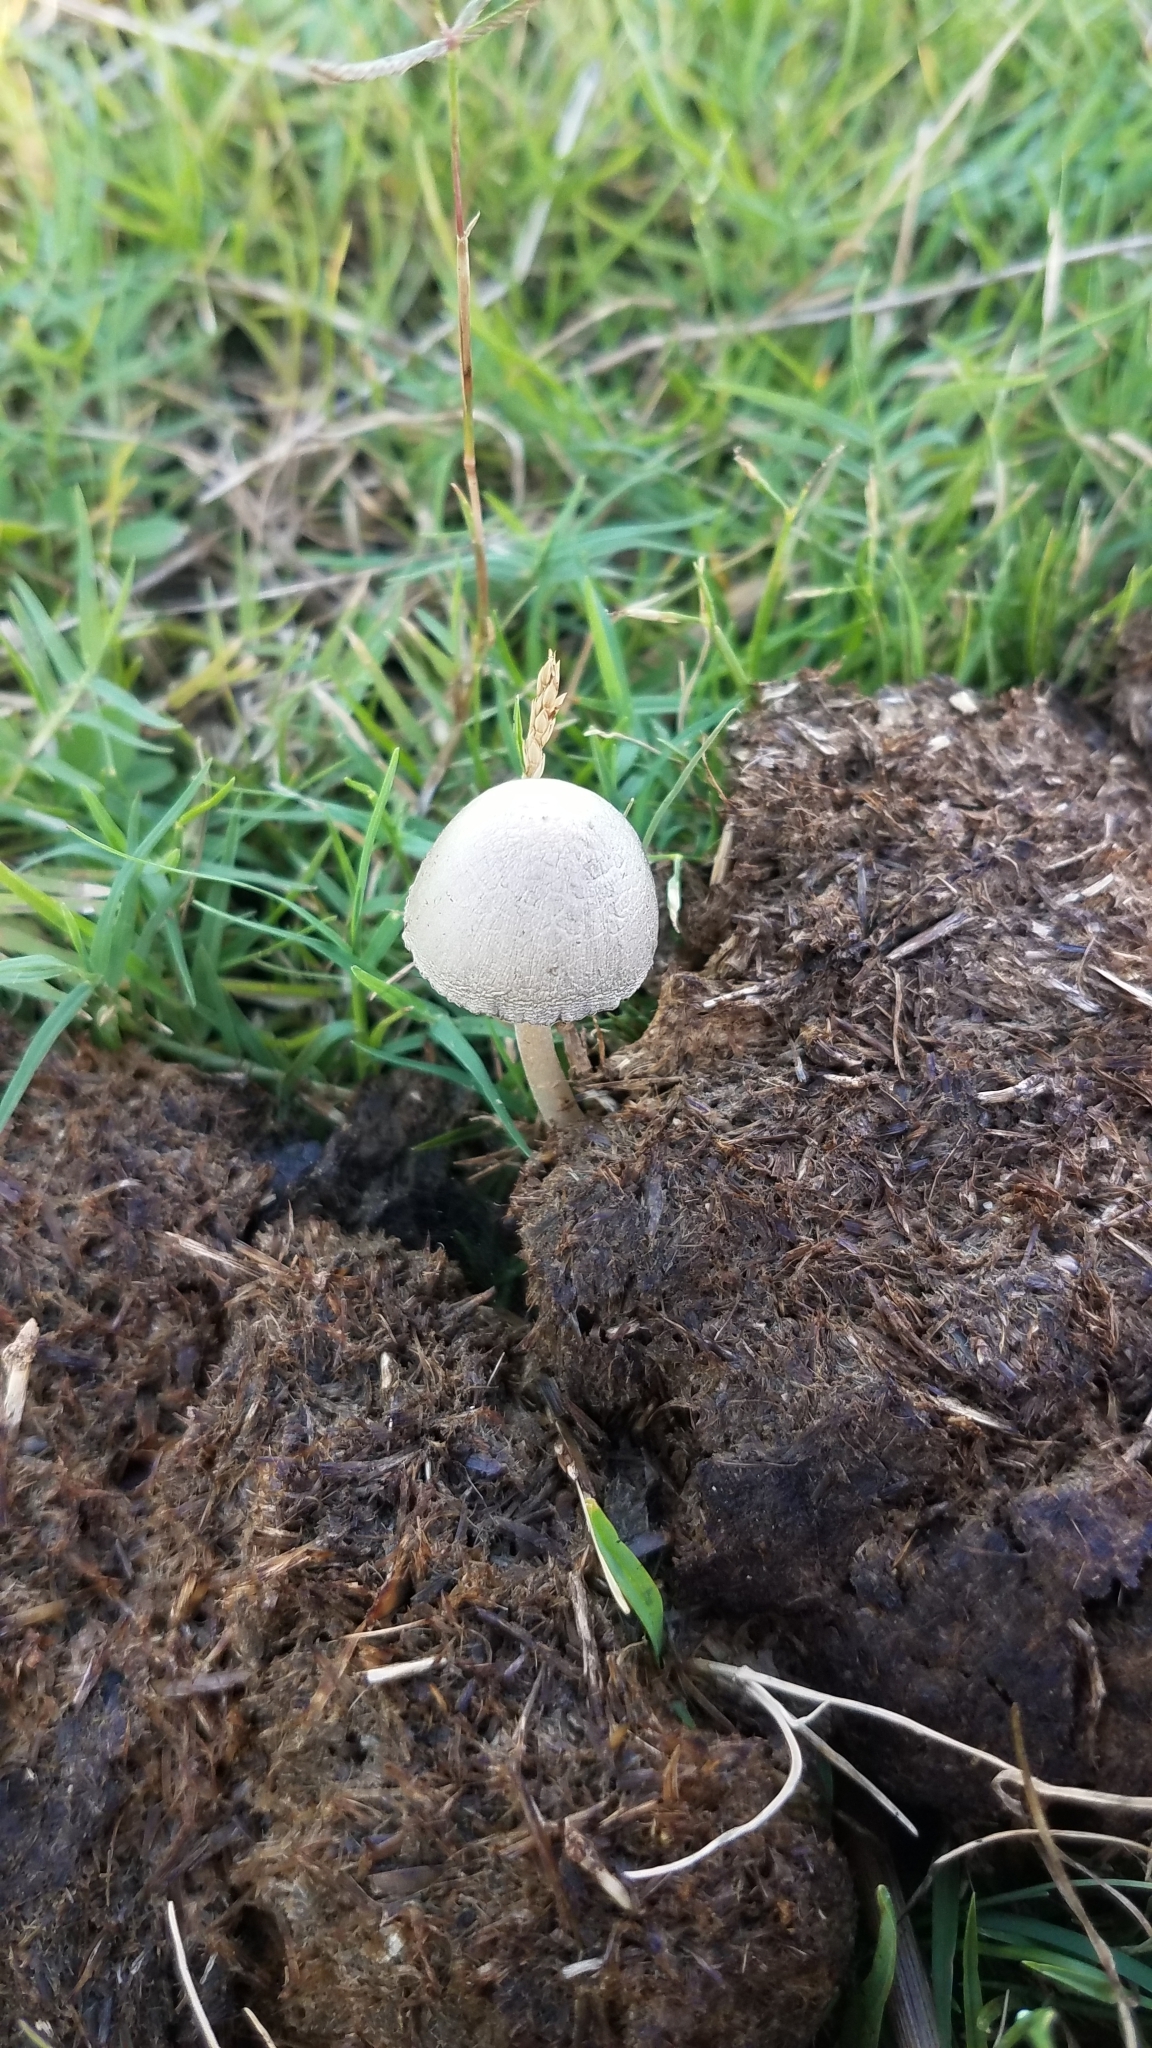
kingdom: Fungi
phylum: Basidiomycota
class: Agaricomycetes
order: Agaricales
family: Bolbitiaceae
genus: Panaeolus
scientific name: Panaeolus antillarum
